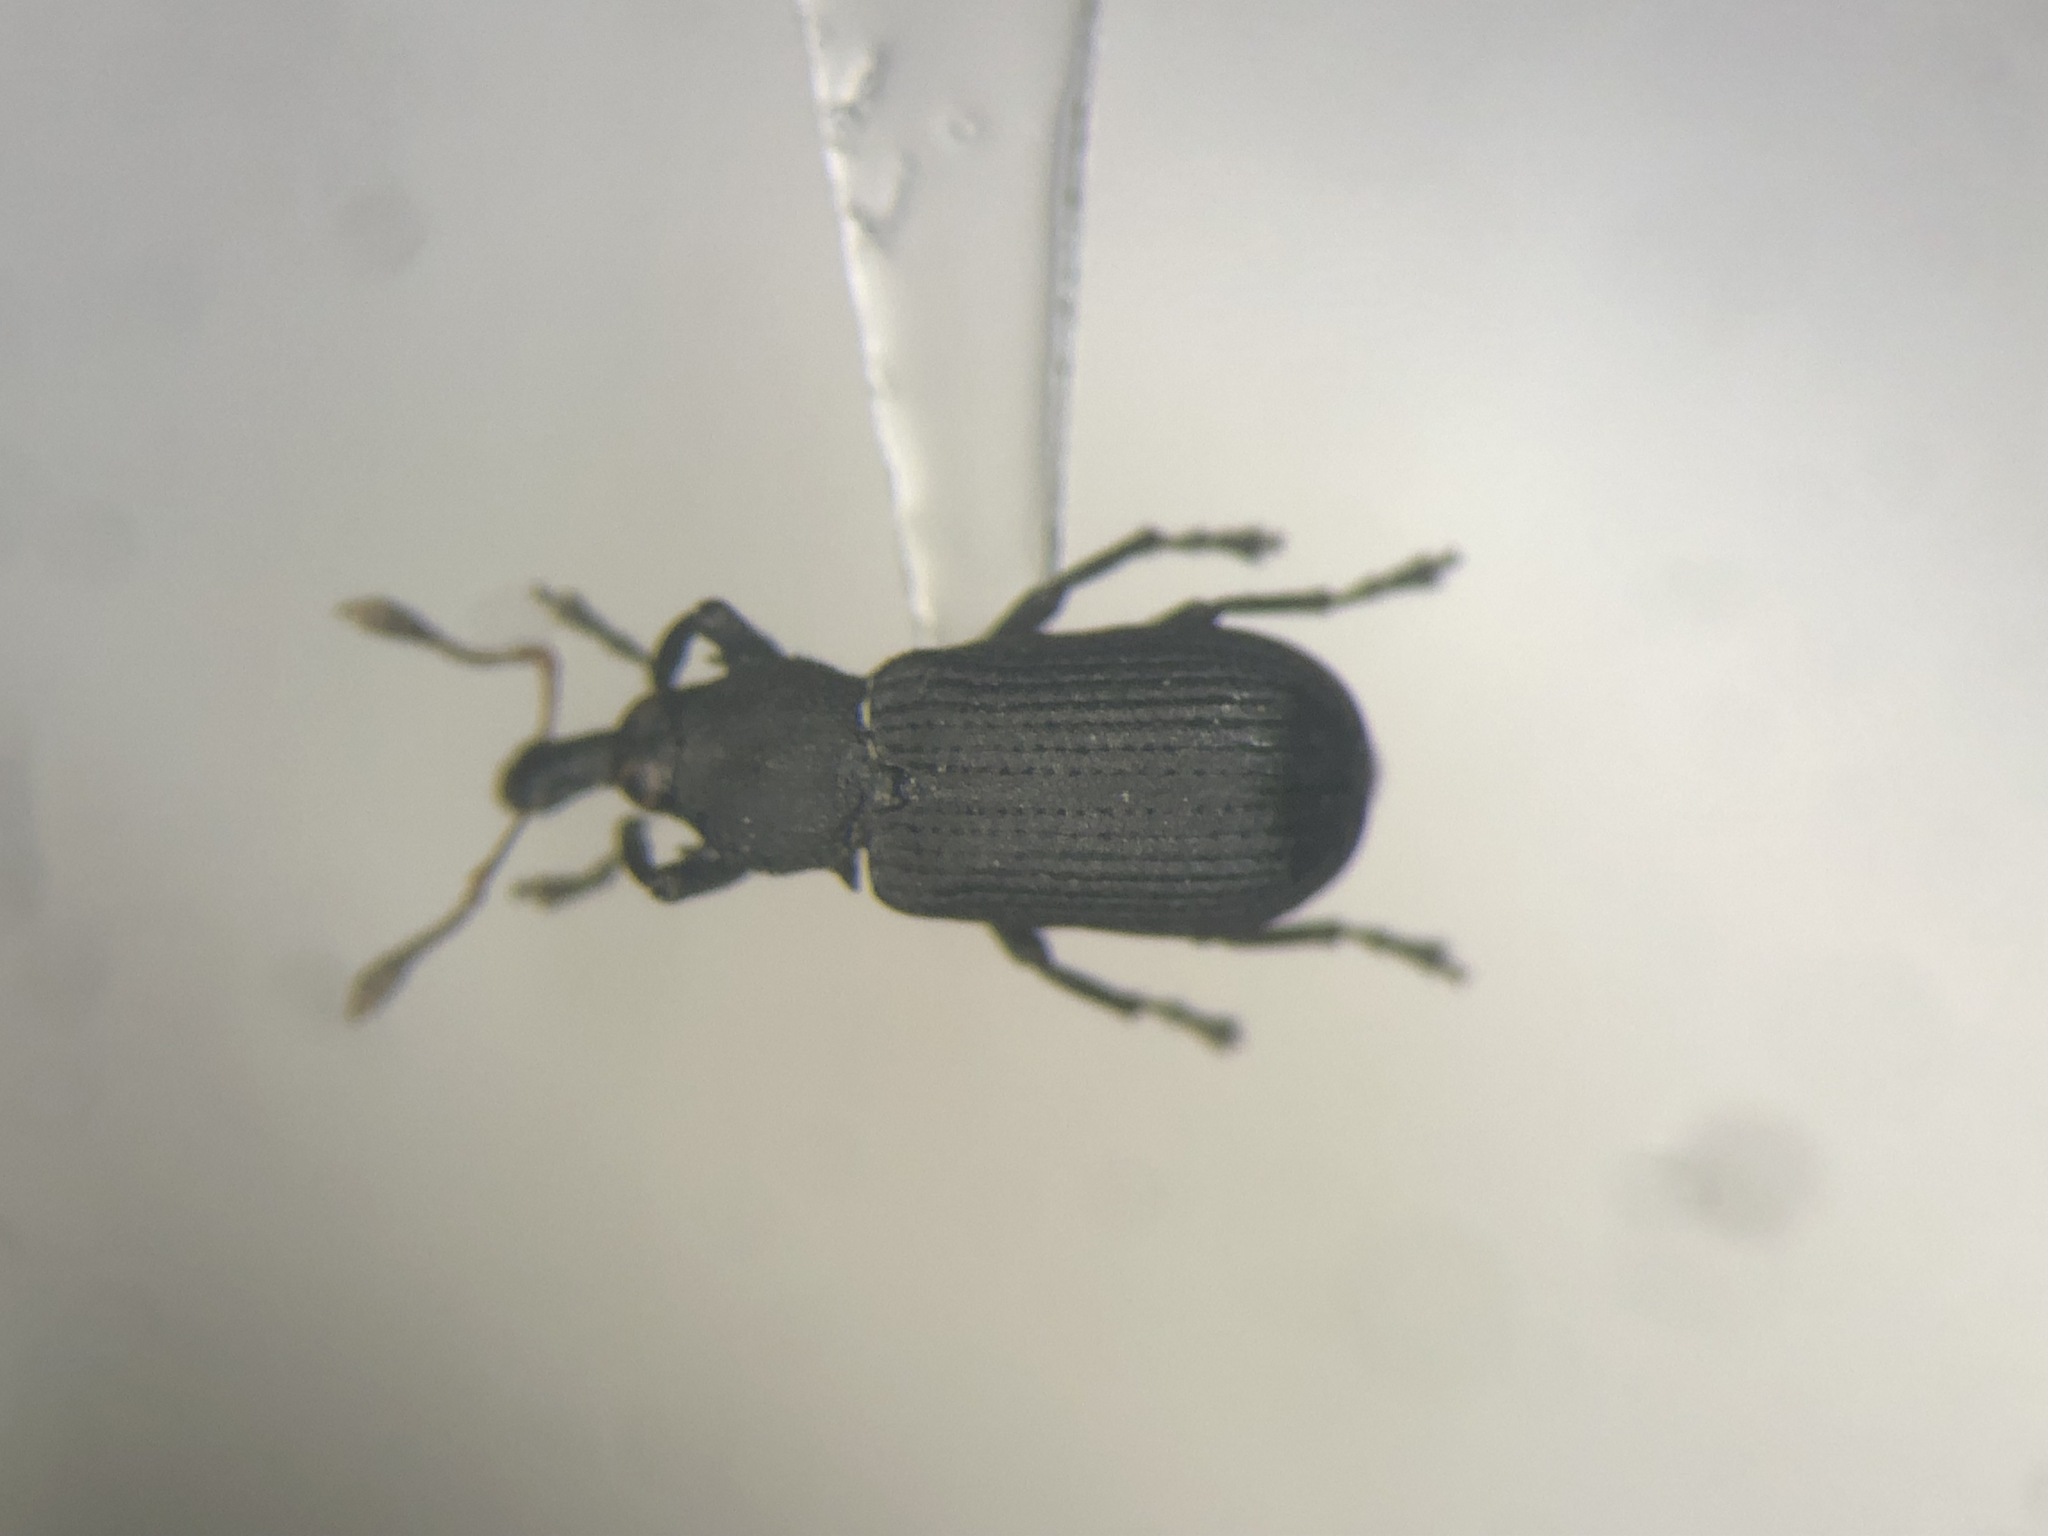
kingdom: Animalia
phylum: Arthropoda
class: Insecta
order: Coleoptera
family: Curculionidae
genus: Magdalis
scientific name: Magdalis inconspicua
